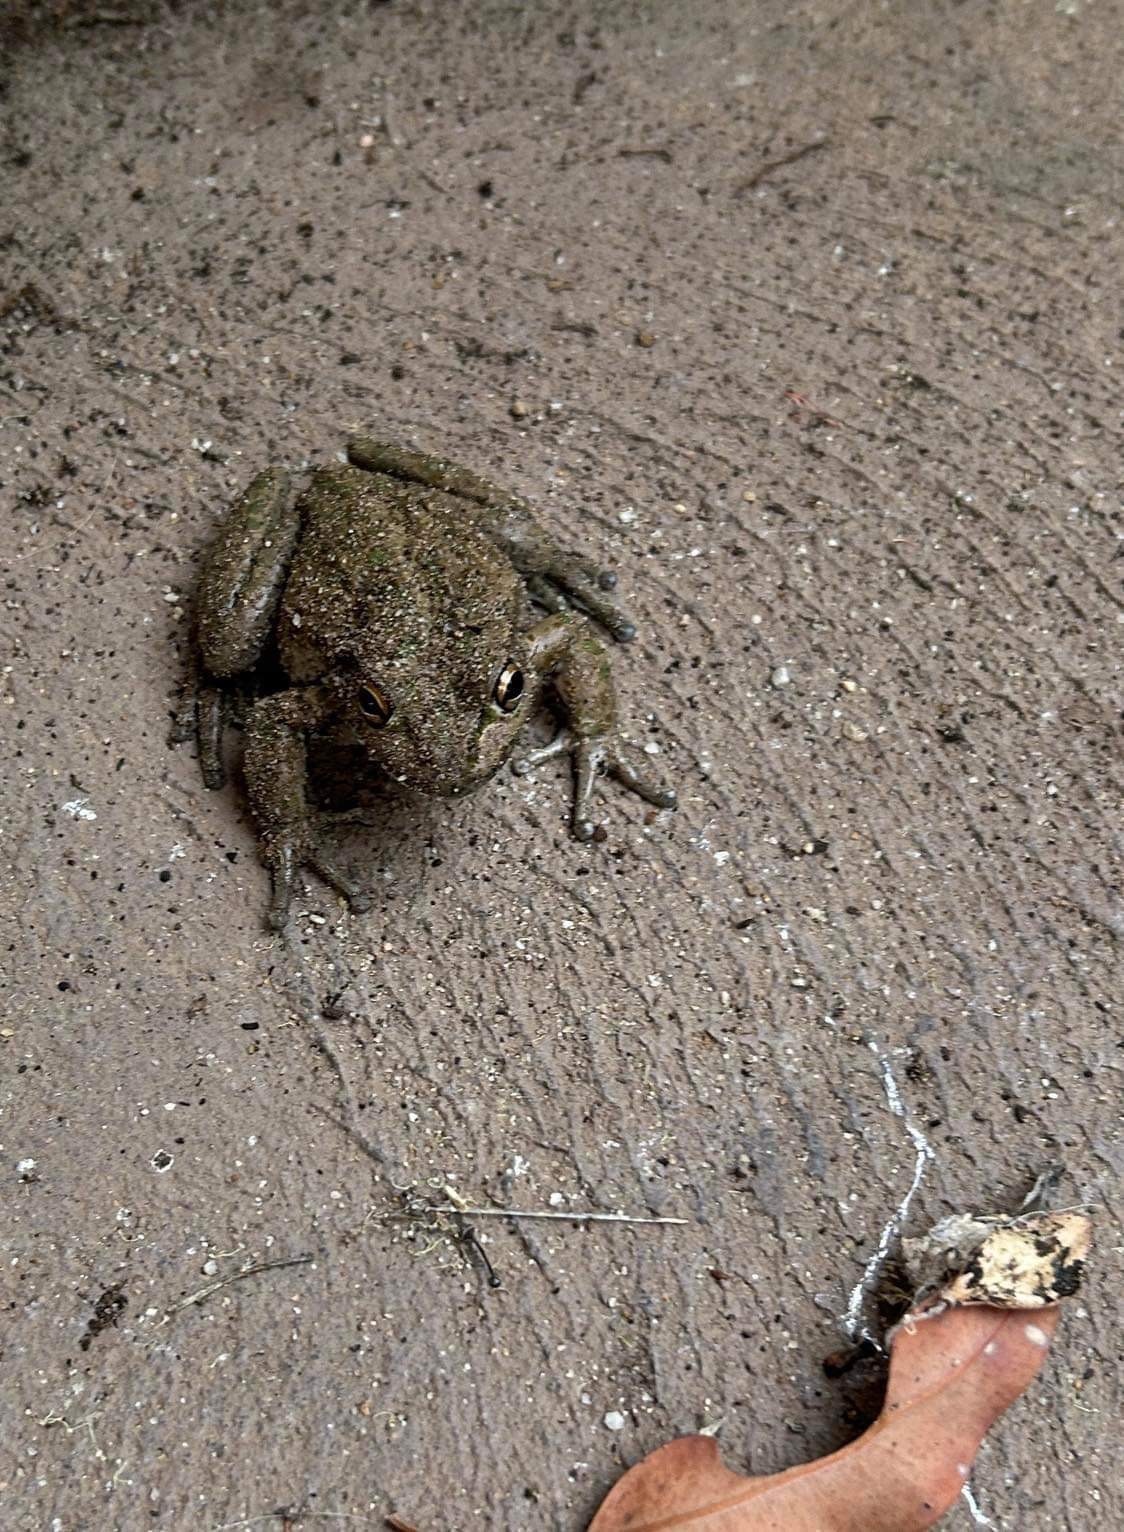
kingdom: Animalia
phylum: Chordata
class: Amphibia
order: Anura
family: Pelodryadidae
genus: Ranoidea
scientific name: Ranoidea cyclorhynchus
